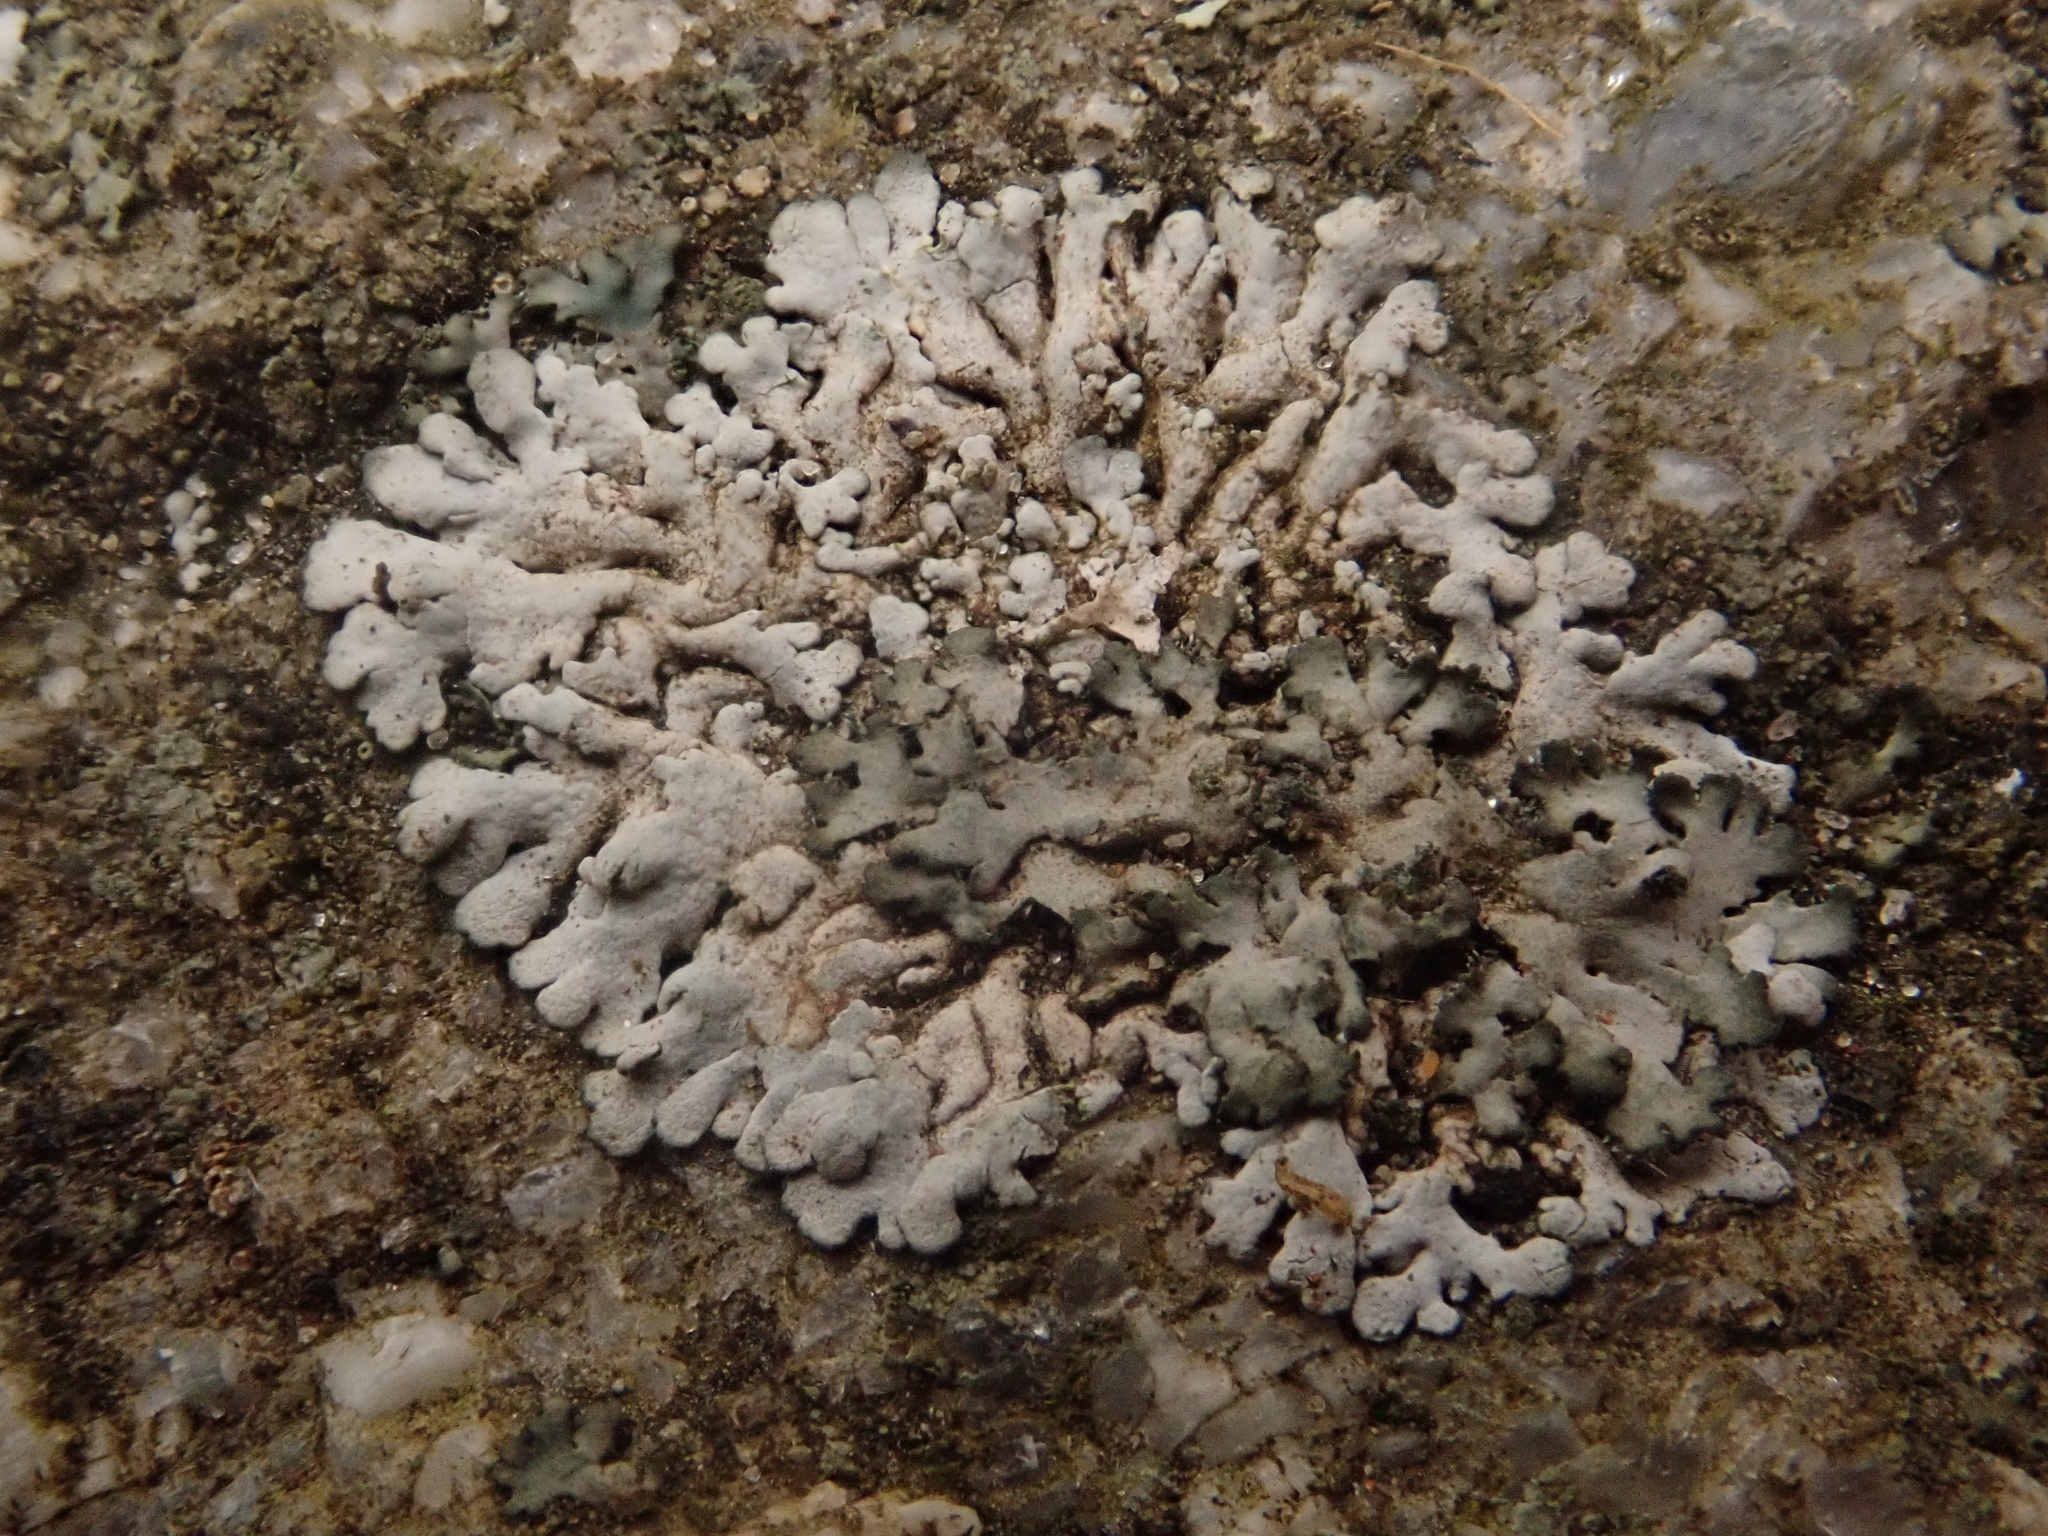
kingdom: Fungi
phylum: Ascomycota
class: Lecanoromycetes
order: Caliciales
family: Physciaceae
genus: Physcia
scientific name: Physcia caesia
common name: Blue-gray rosette lichen
